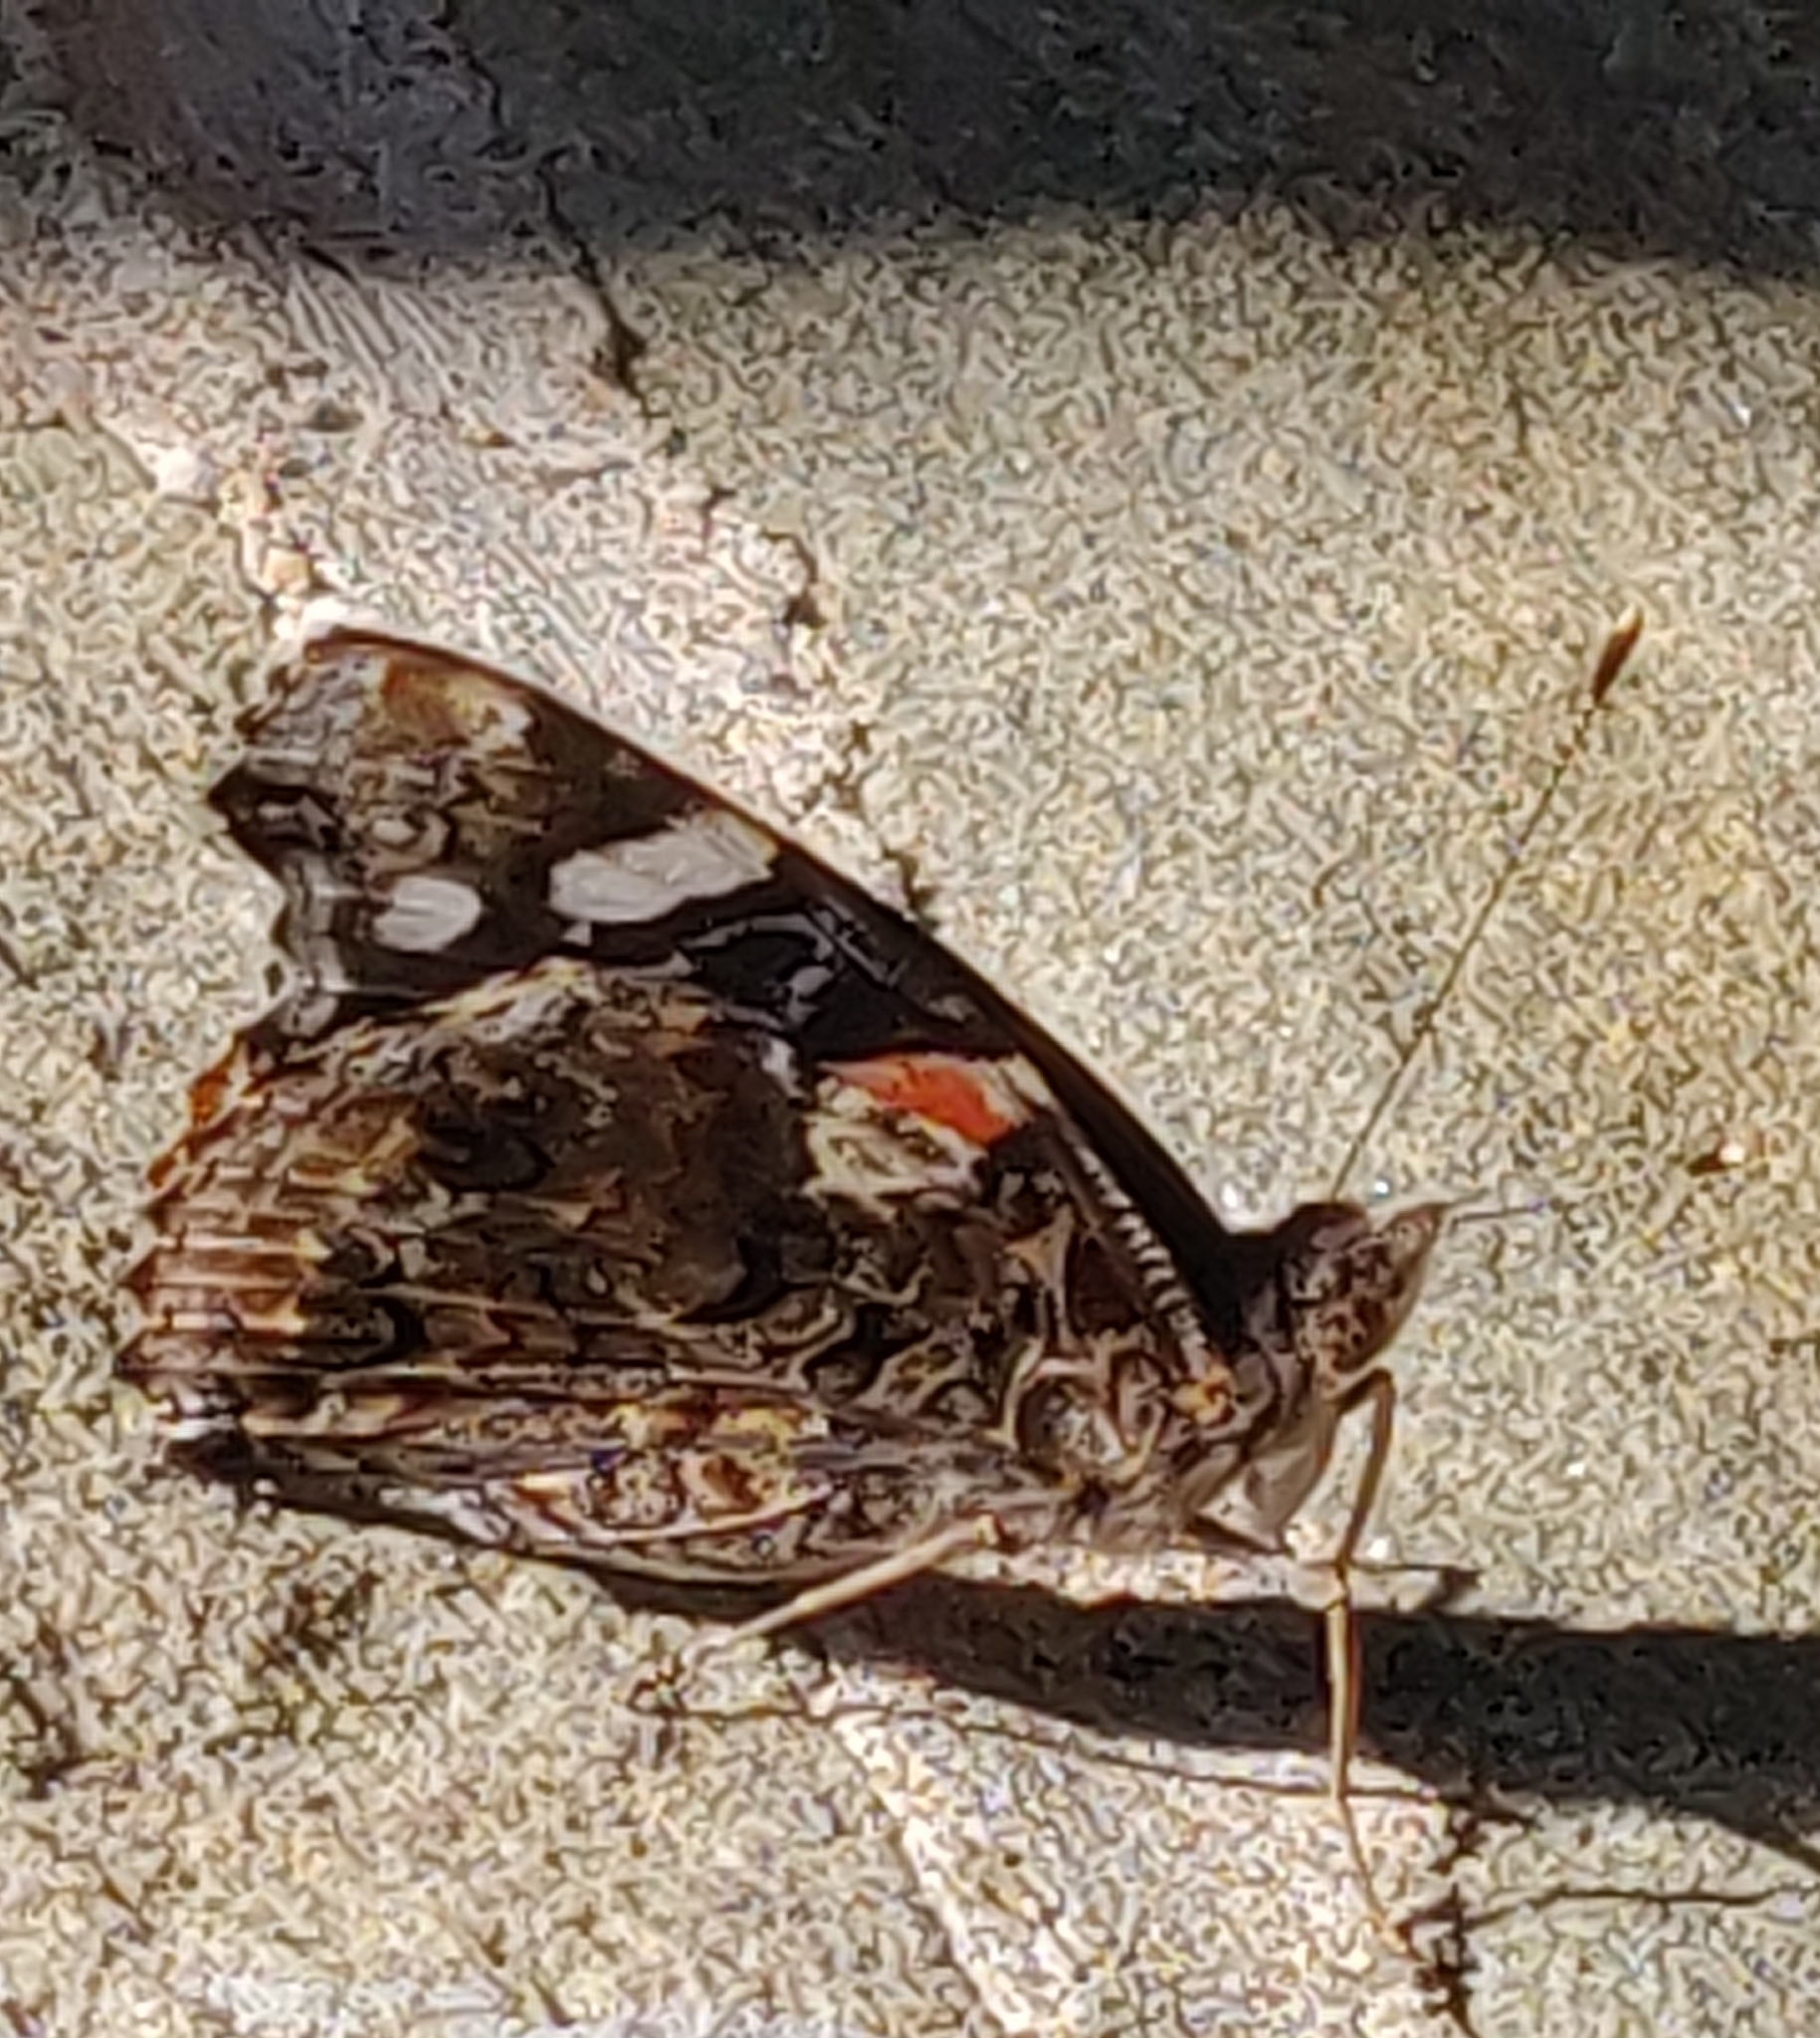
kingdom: Animalia
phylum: Arthropoda
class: Insecta
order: Lepidoptera
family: Nymphalidae
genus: Vanessa
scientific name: Vanessa atalanta
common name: Red admiral
